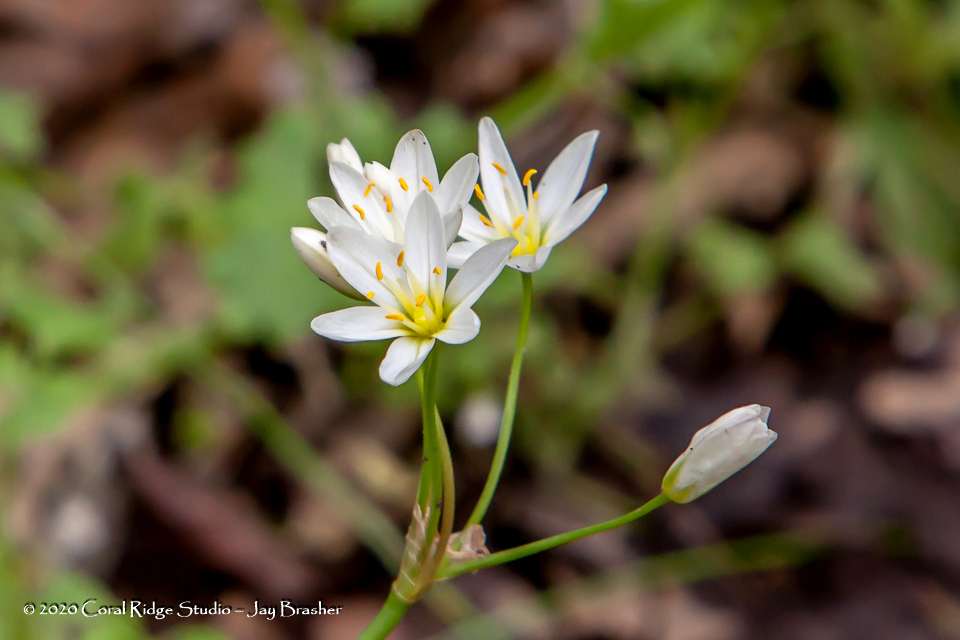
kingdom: Plantae
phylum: Tracheophyta
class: Liliopsida
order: Asparagales
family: Amaryllidaceae
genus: Nothoscordum
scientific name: Nothoscordum bivalve
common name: Crow-poison
